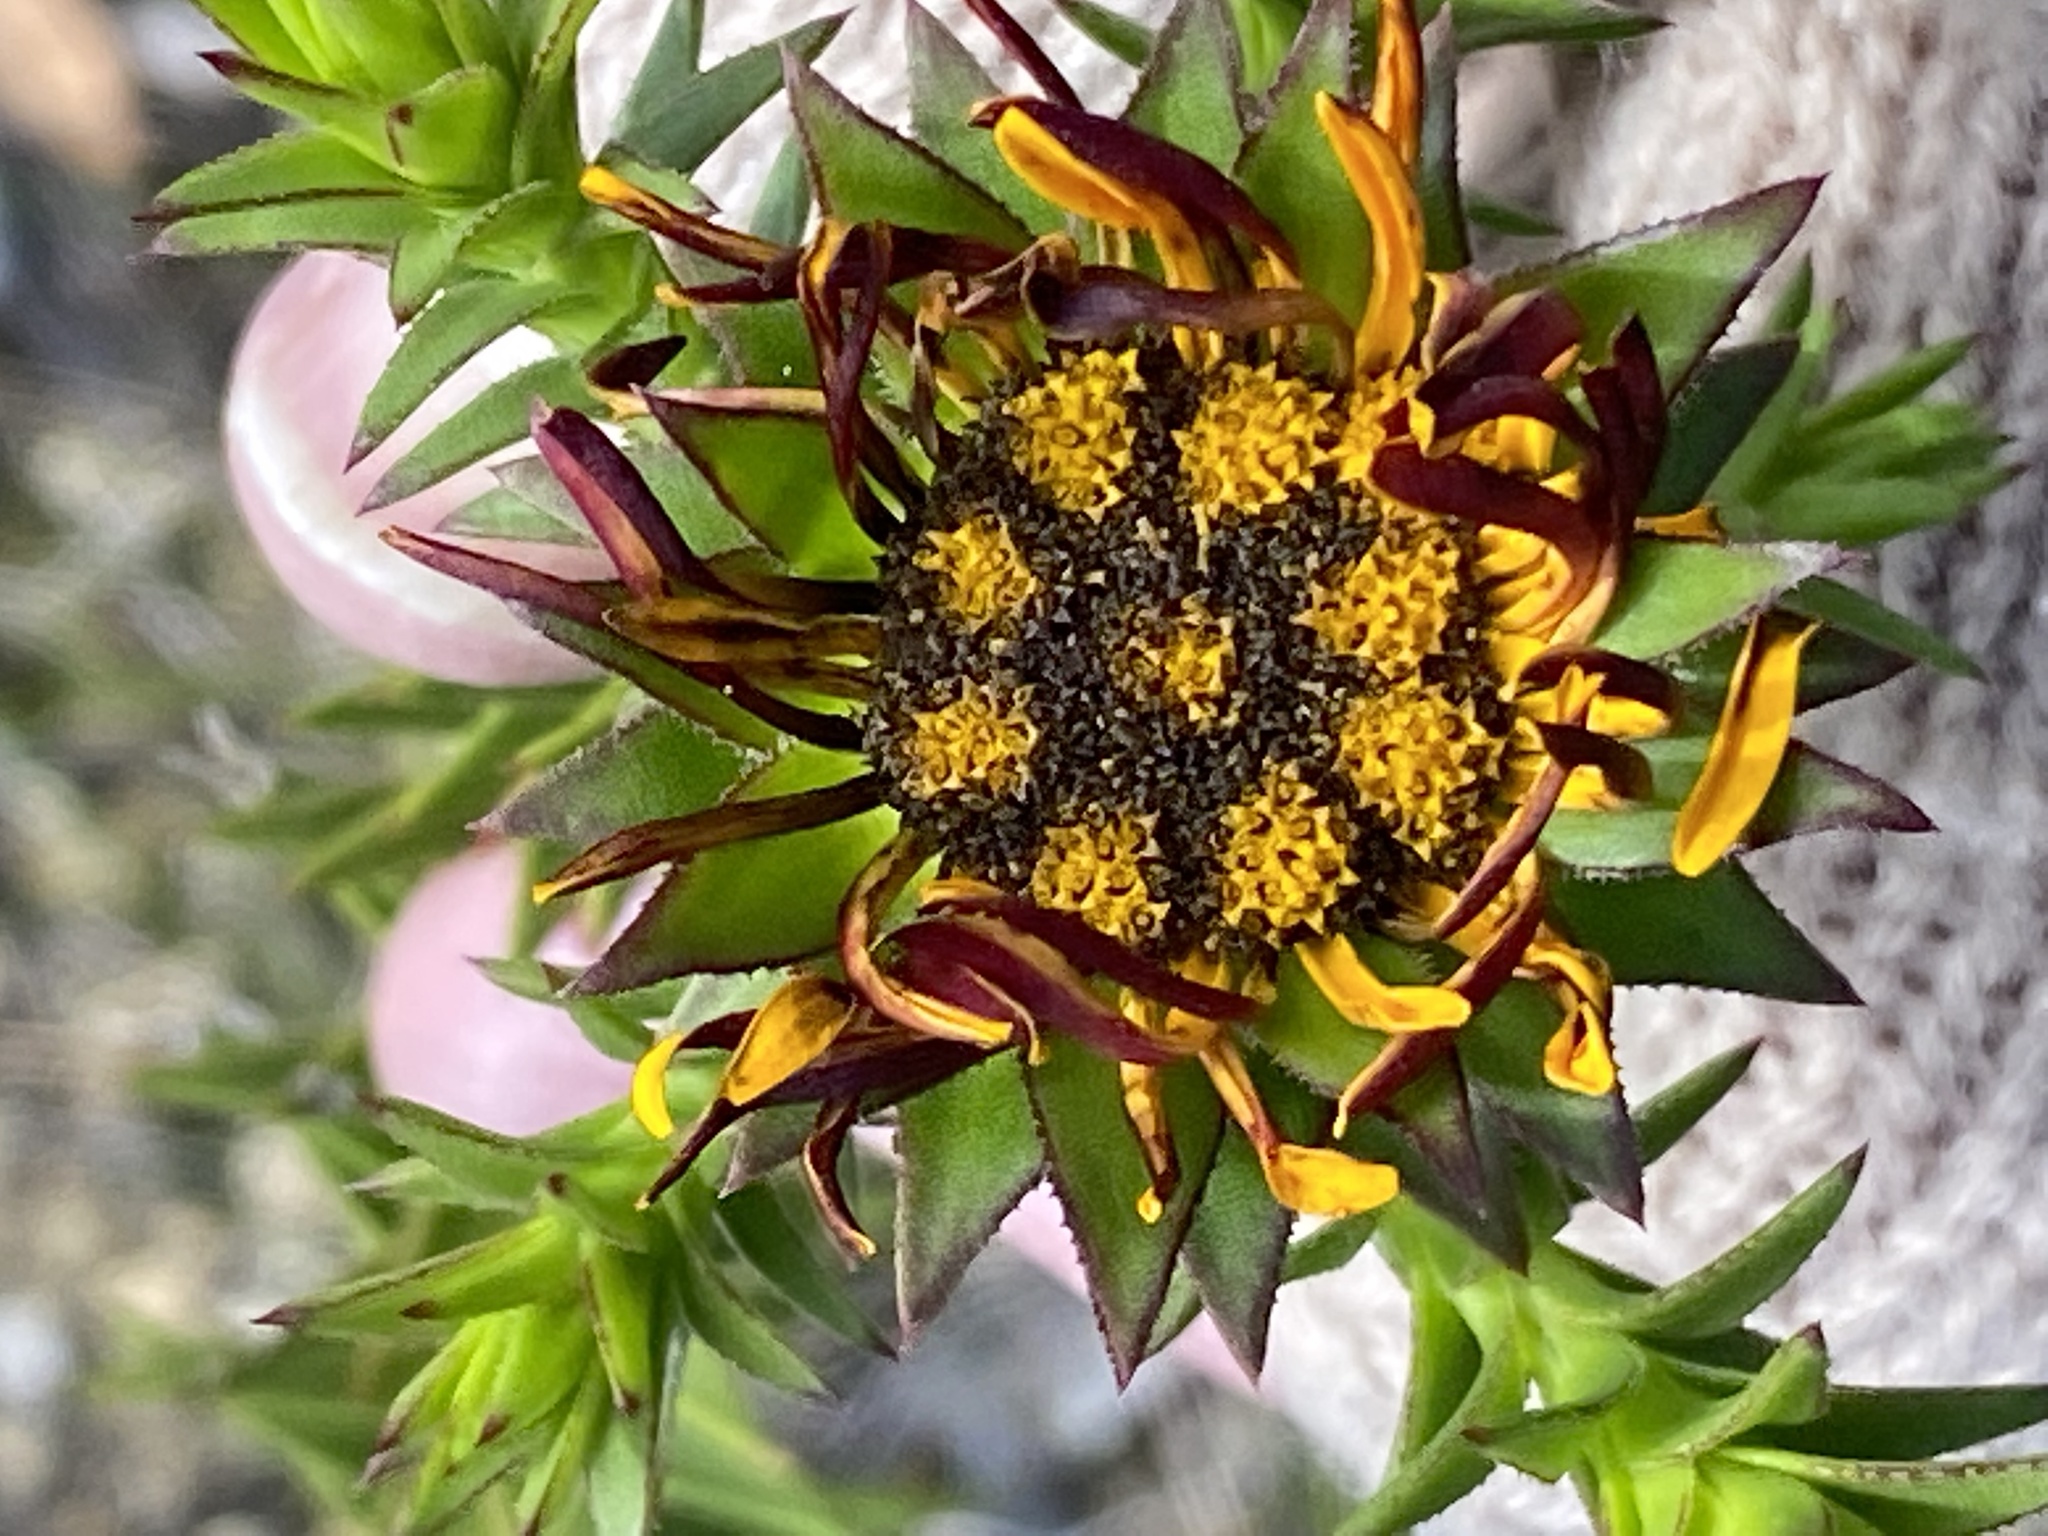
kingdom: Plantae
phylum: Tracheophyta
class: Magnoliopsida
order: Asterales
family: Asteraceae
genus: Oedera
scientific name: Oedera capensis
